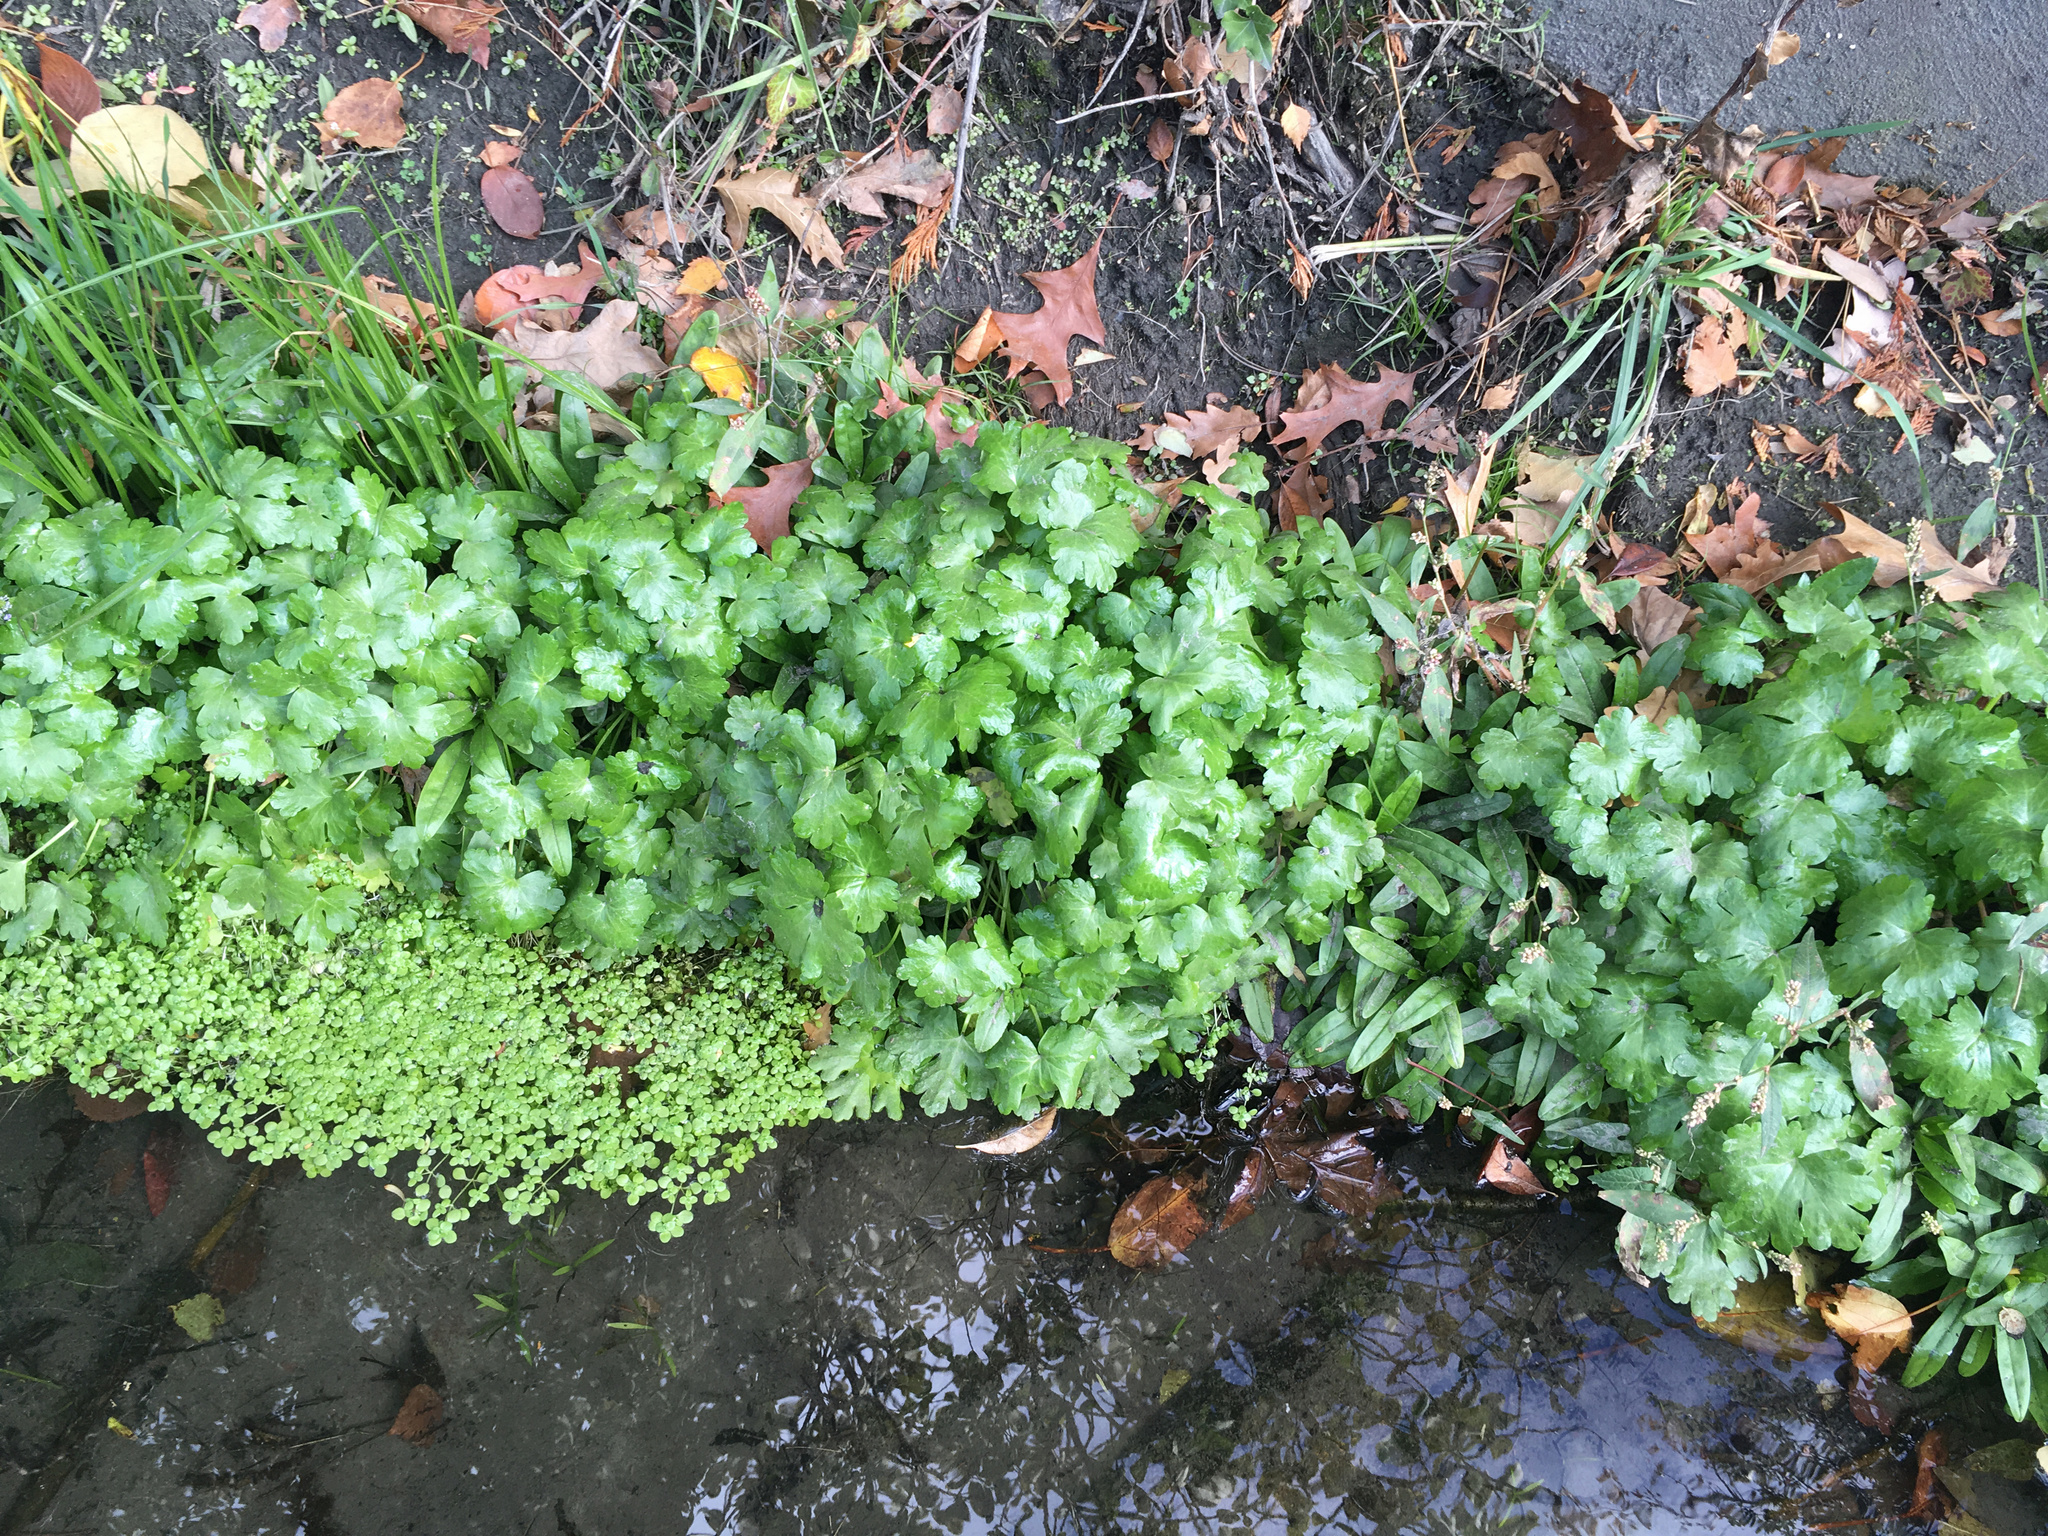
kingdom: Plantae
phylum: Tracheophyta
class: Magnoliopsida
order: Ranunculales
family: Ranunculaceae
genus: Ranunculus
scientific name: Ranunculus sceleratus
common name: Celery-leaved buttercup
